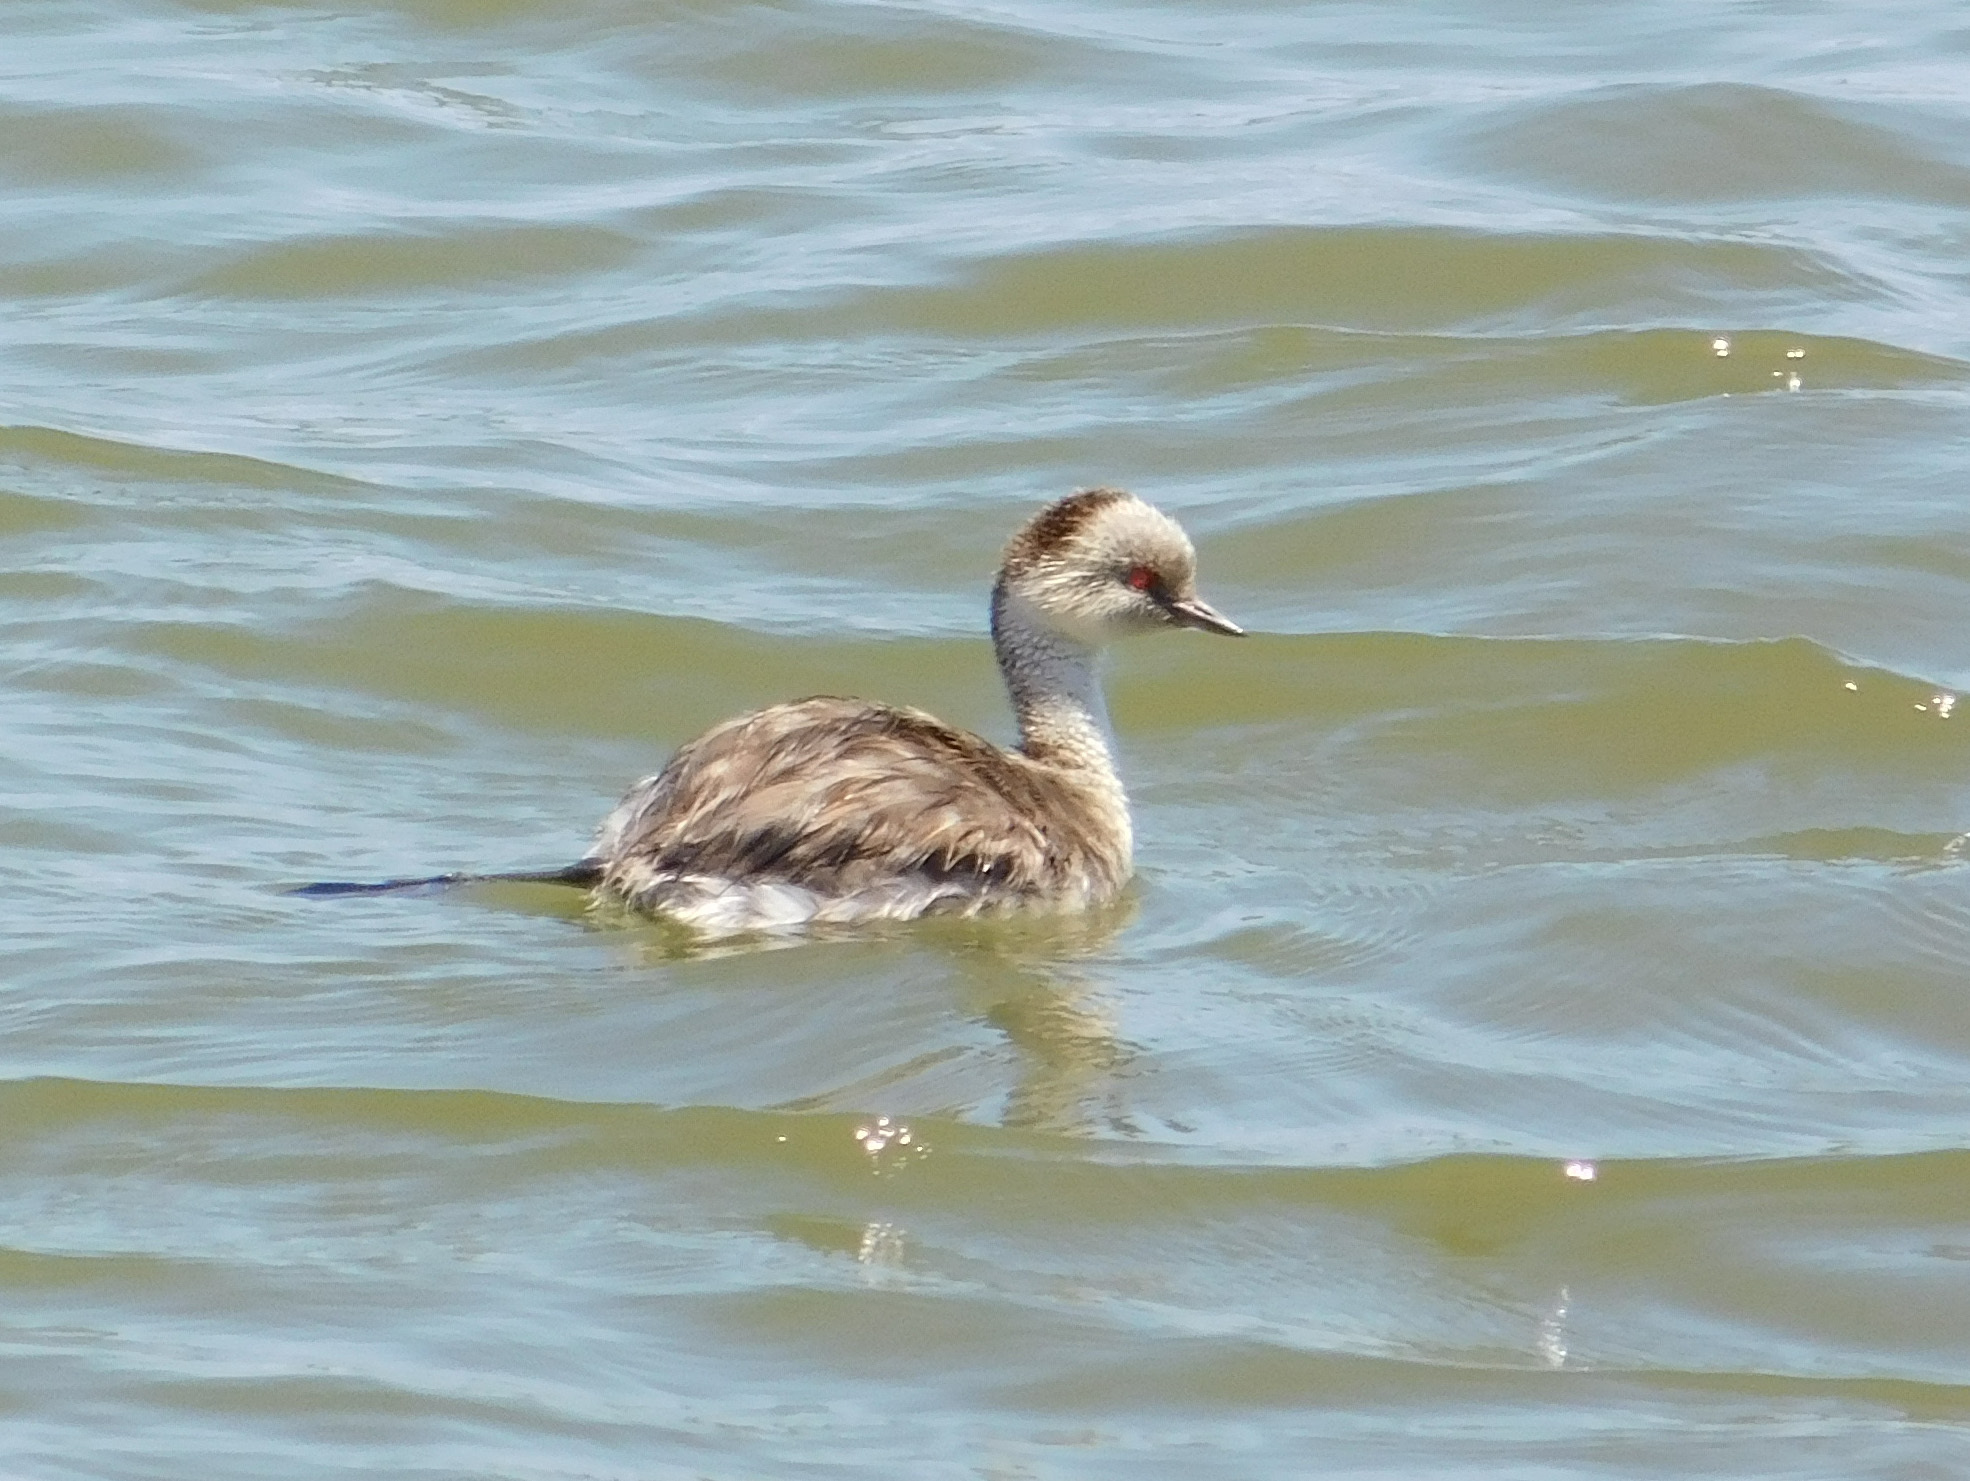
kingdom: Animalia
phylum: Chordata
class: Aves
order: Podicipediformes
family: Podicipedidae
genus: Podiceps
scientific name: Podiceps occipitalis
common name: Silvery grebe
